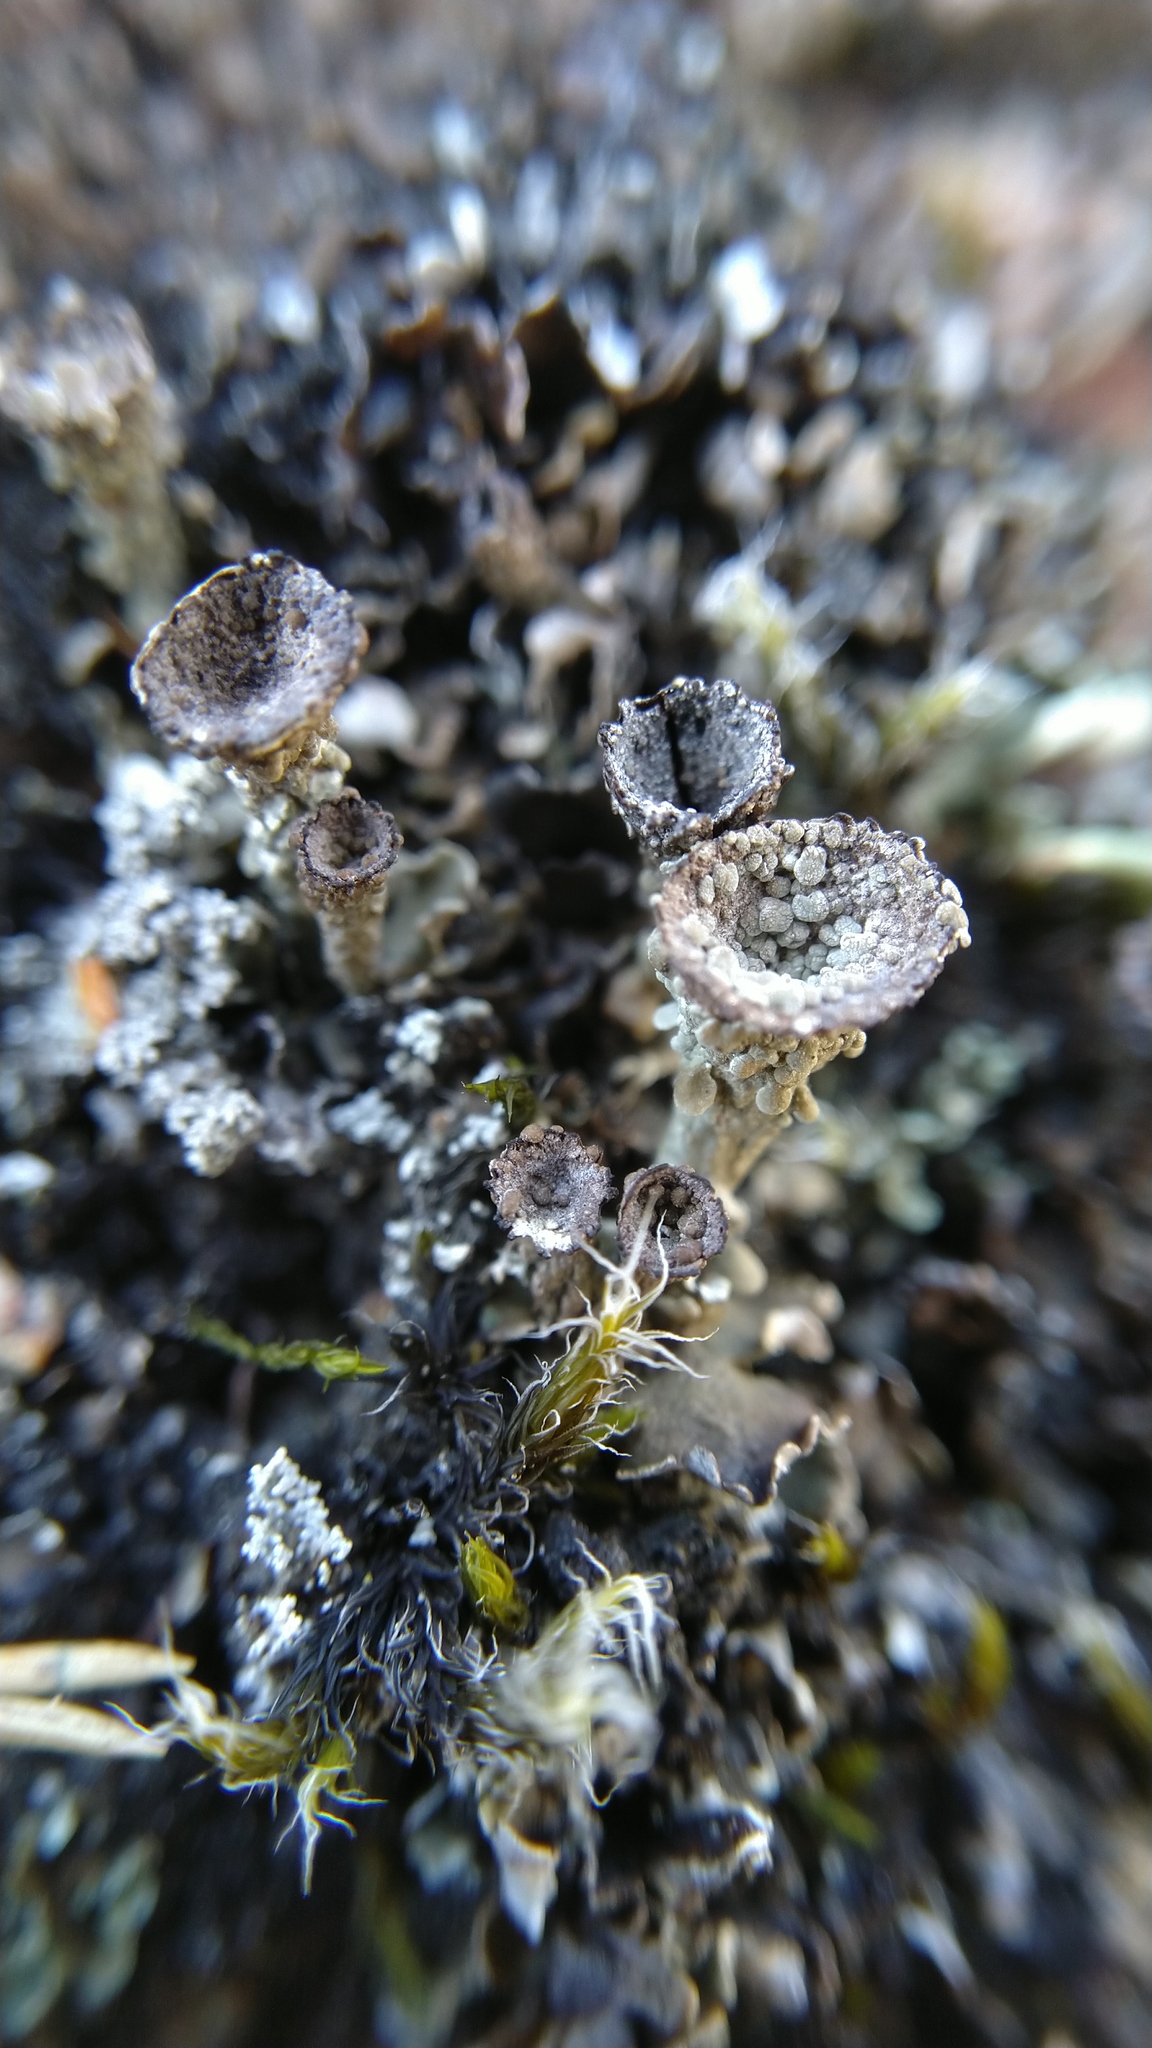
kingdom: Fungi
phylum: Ascomycota
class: Lecanoromycetes
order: Lecanorales
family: Cladoniaceae
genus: Cladonia
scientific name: Cladonia monomorpha
